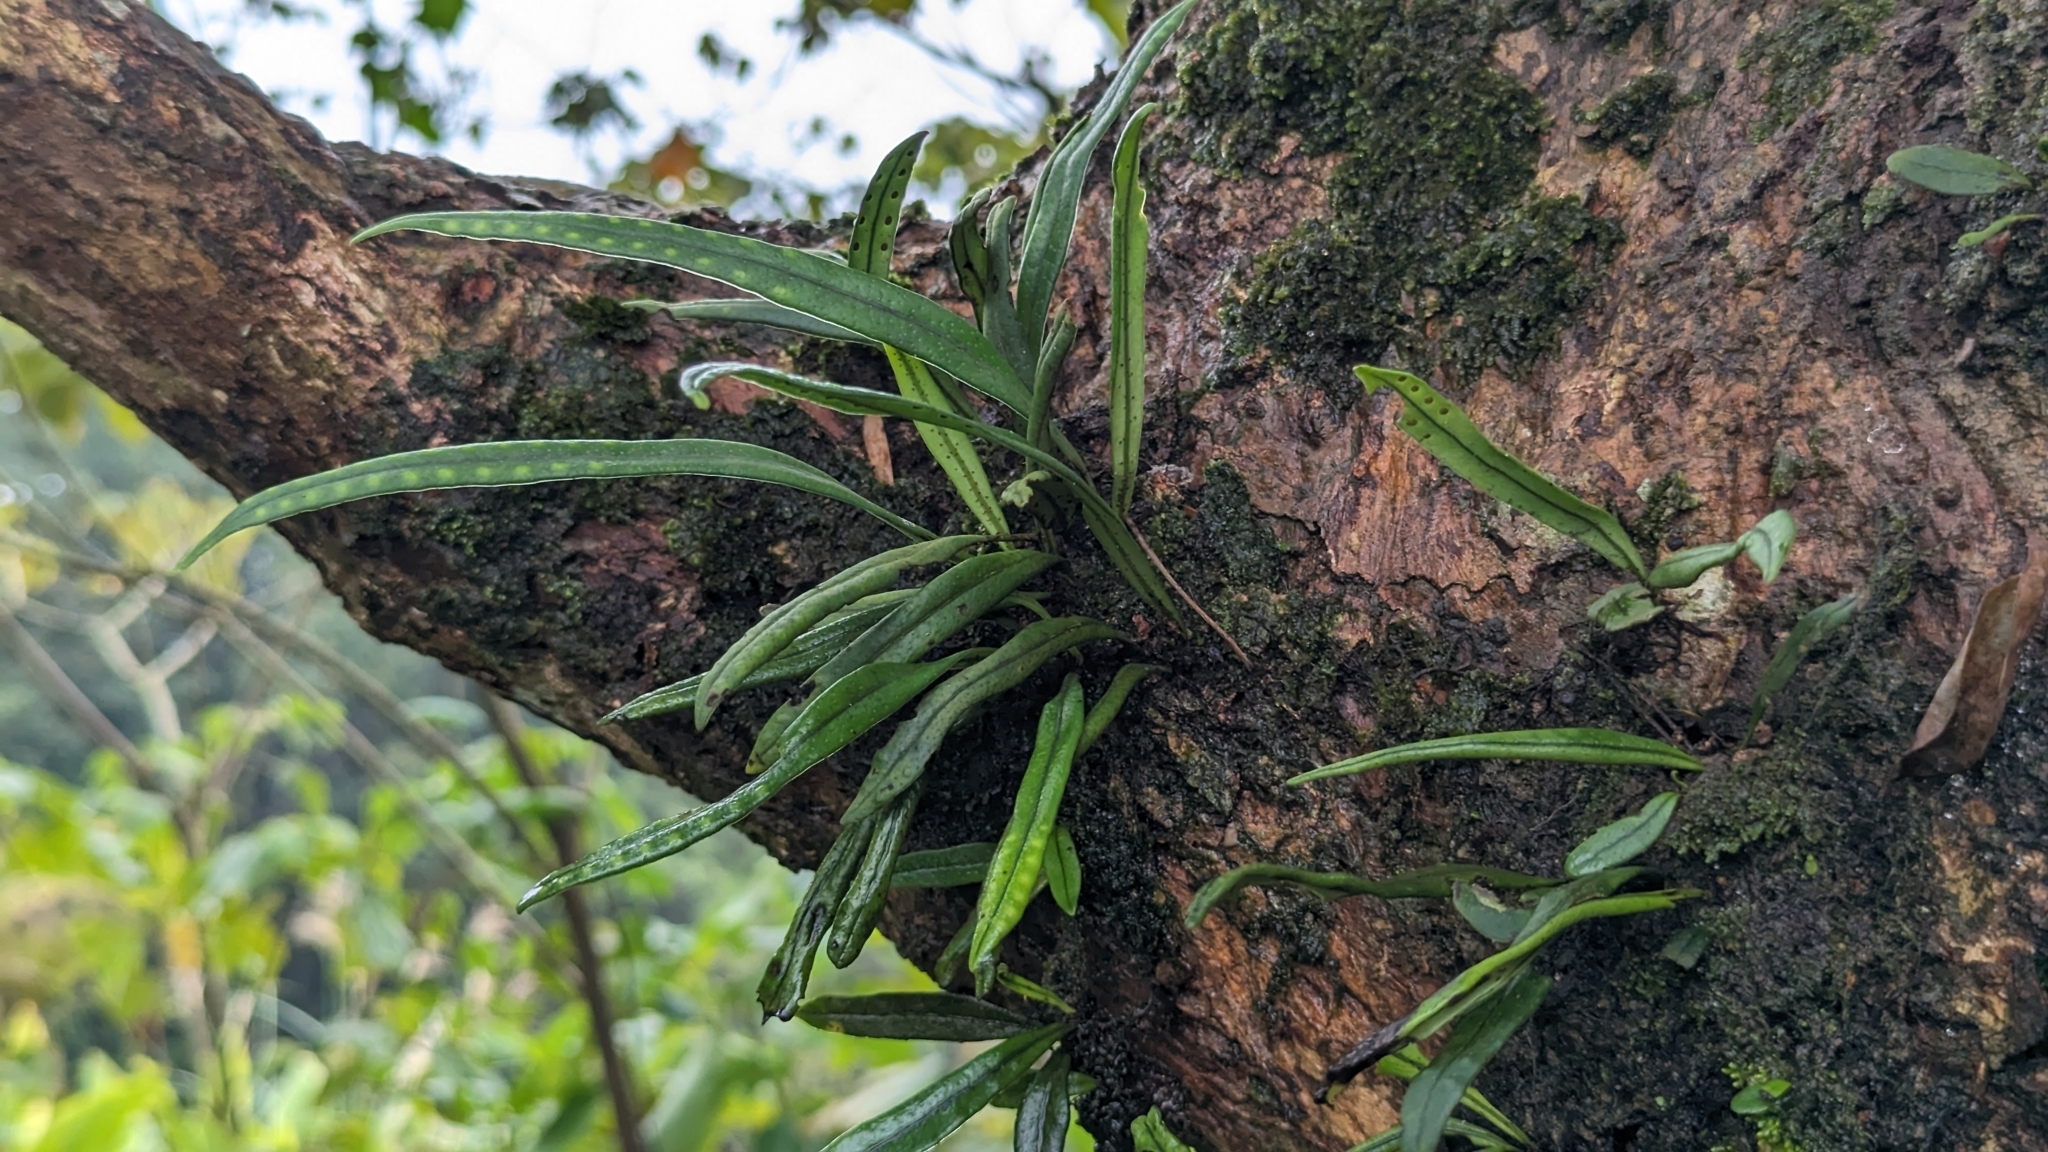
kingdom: Plantae
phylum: Tracheophyta
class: Polypodiopsida
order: Polypodiales
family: Polypodiaceae
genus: Lepisorus
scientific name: Lepisorus thunbergianus
